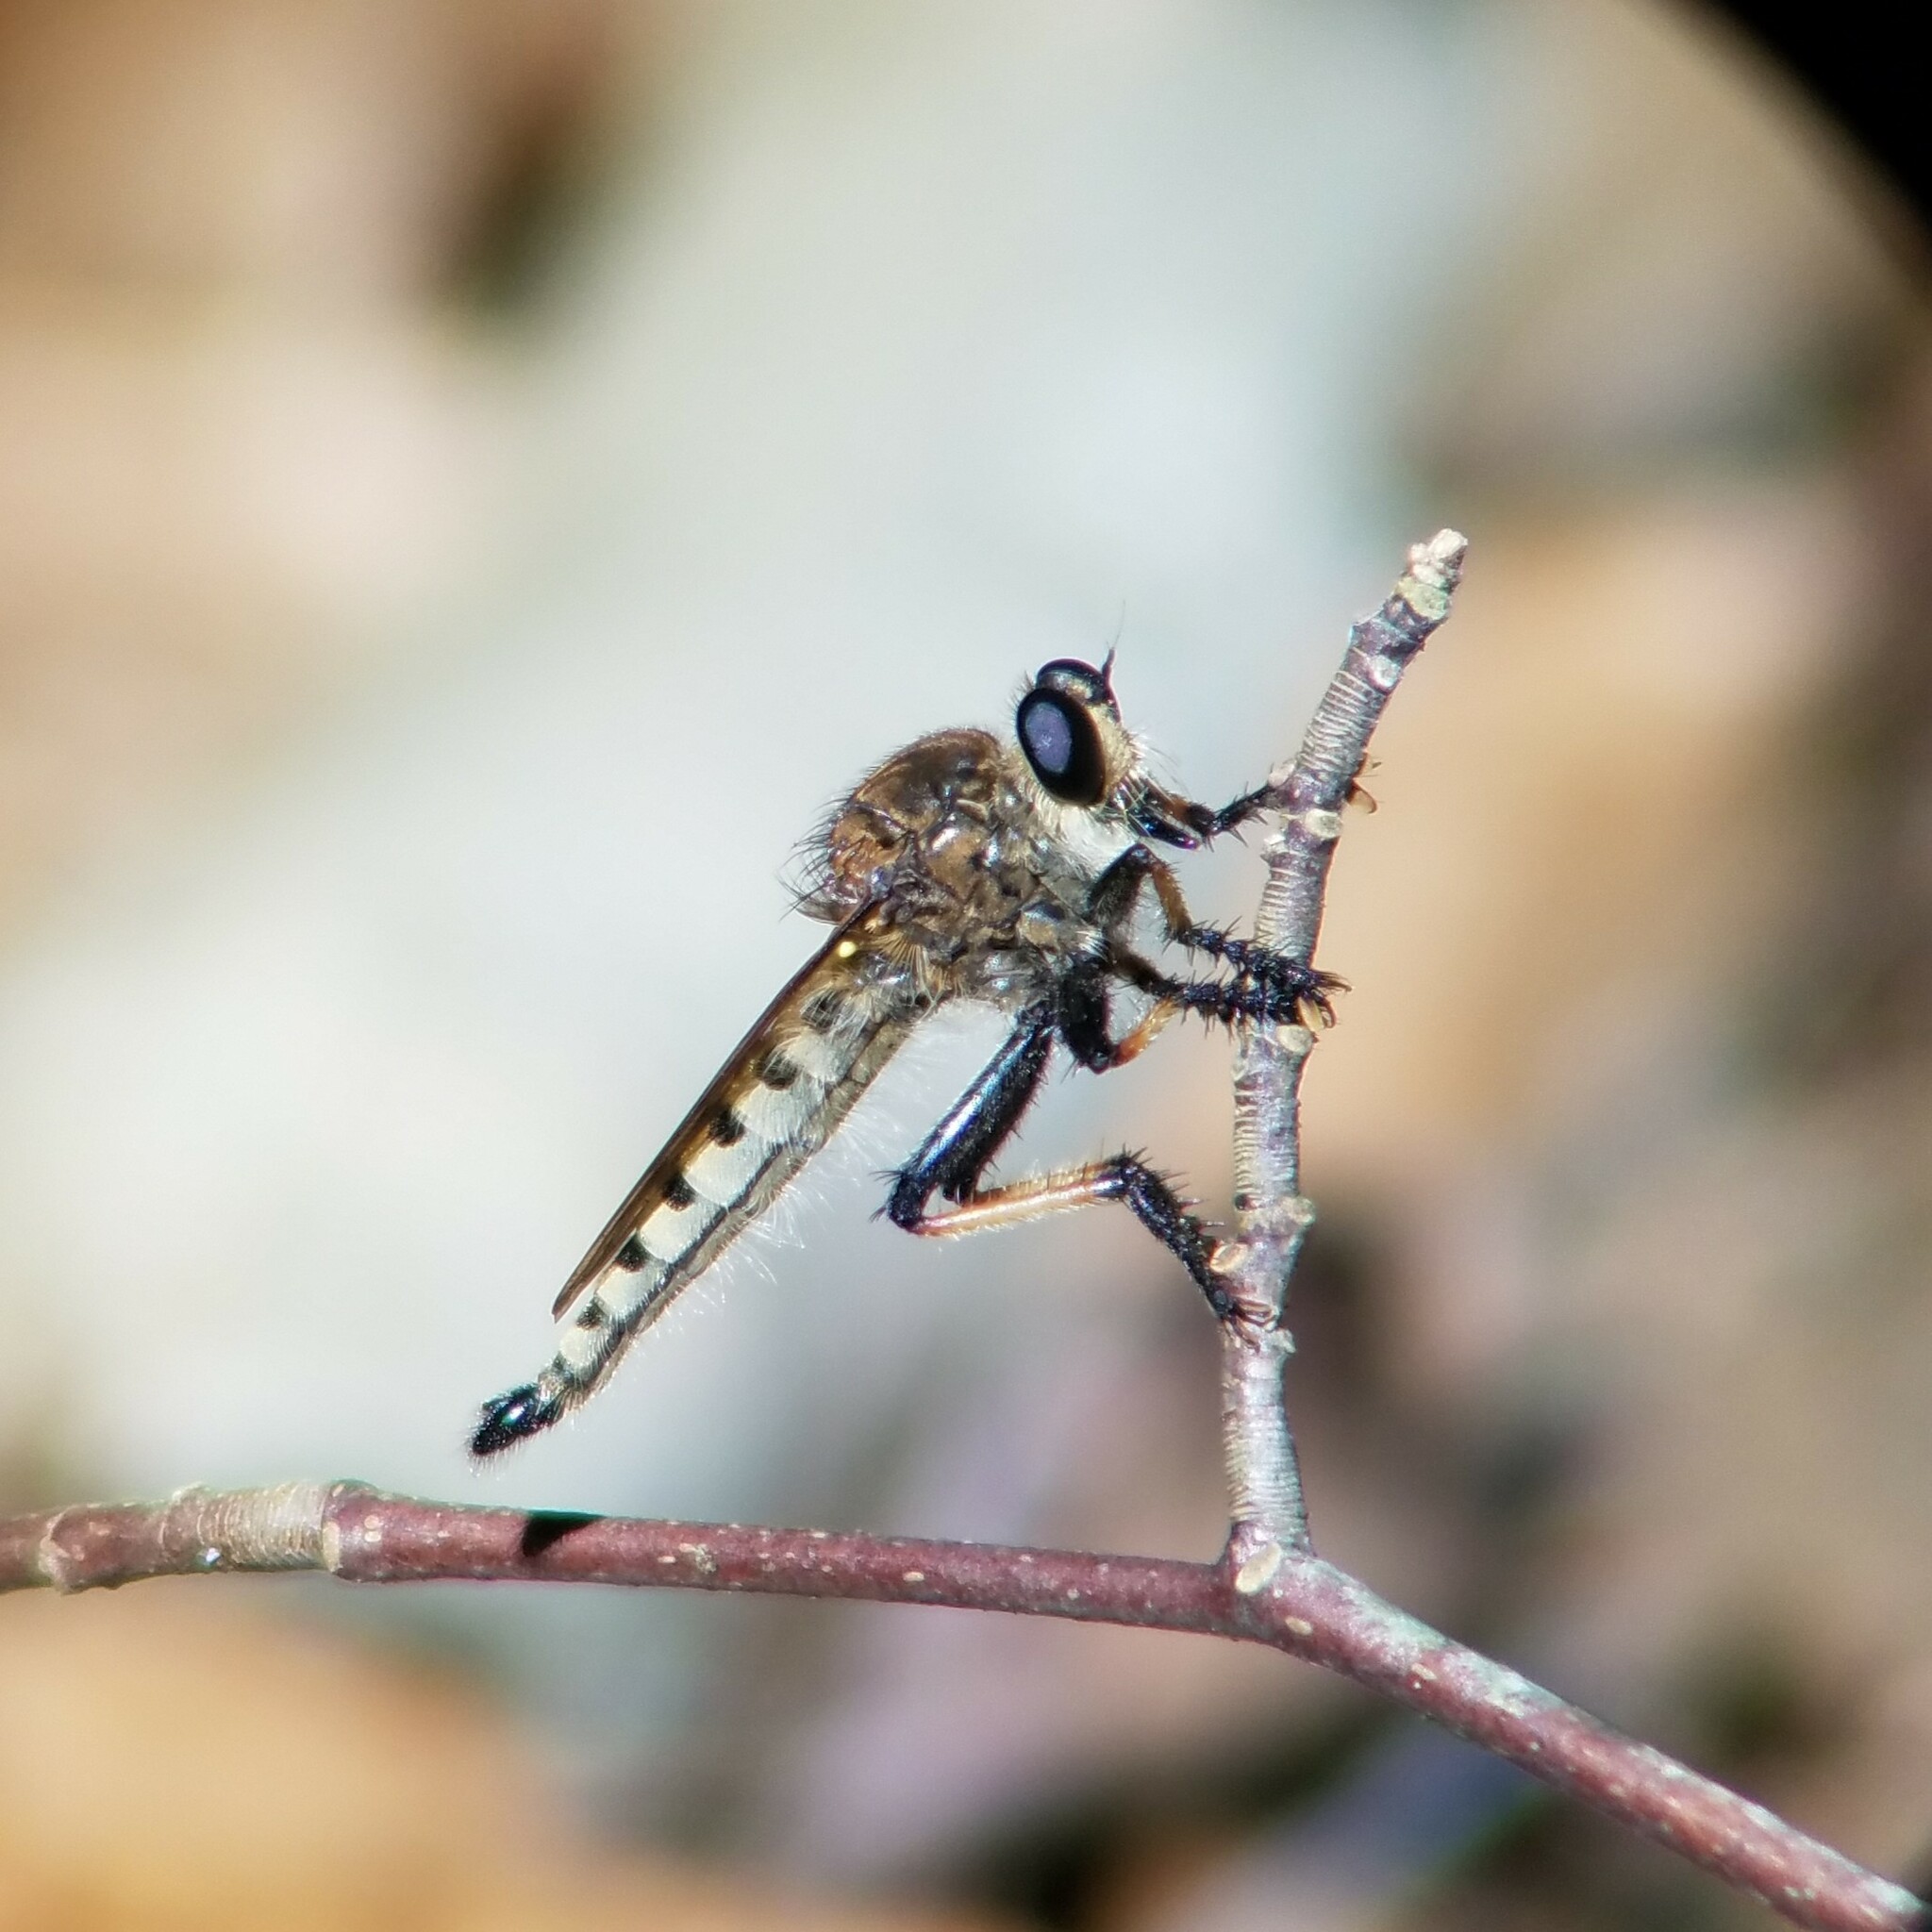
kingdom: Animalia
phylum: Arthropoda
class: Insecta
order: Diptera
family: Asilidae
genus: Promachus
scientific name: Promachus rufipes
